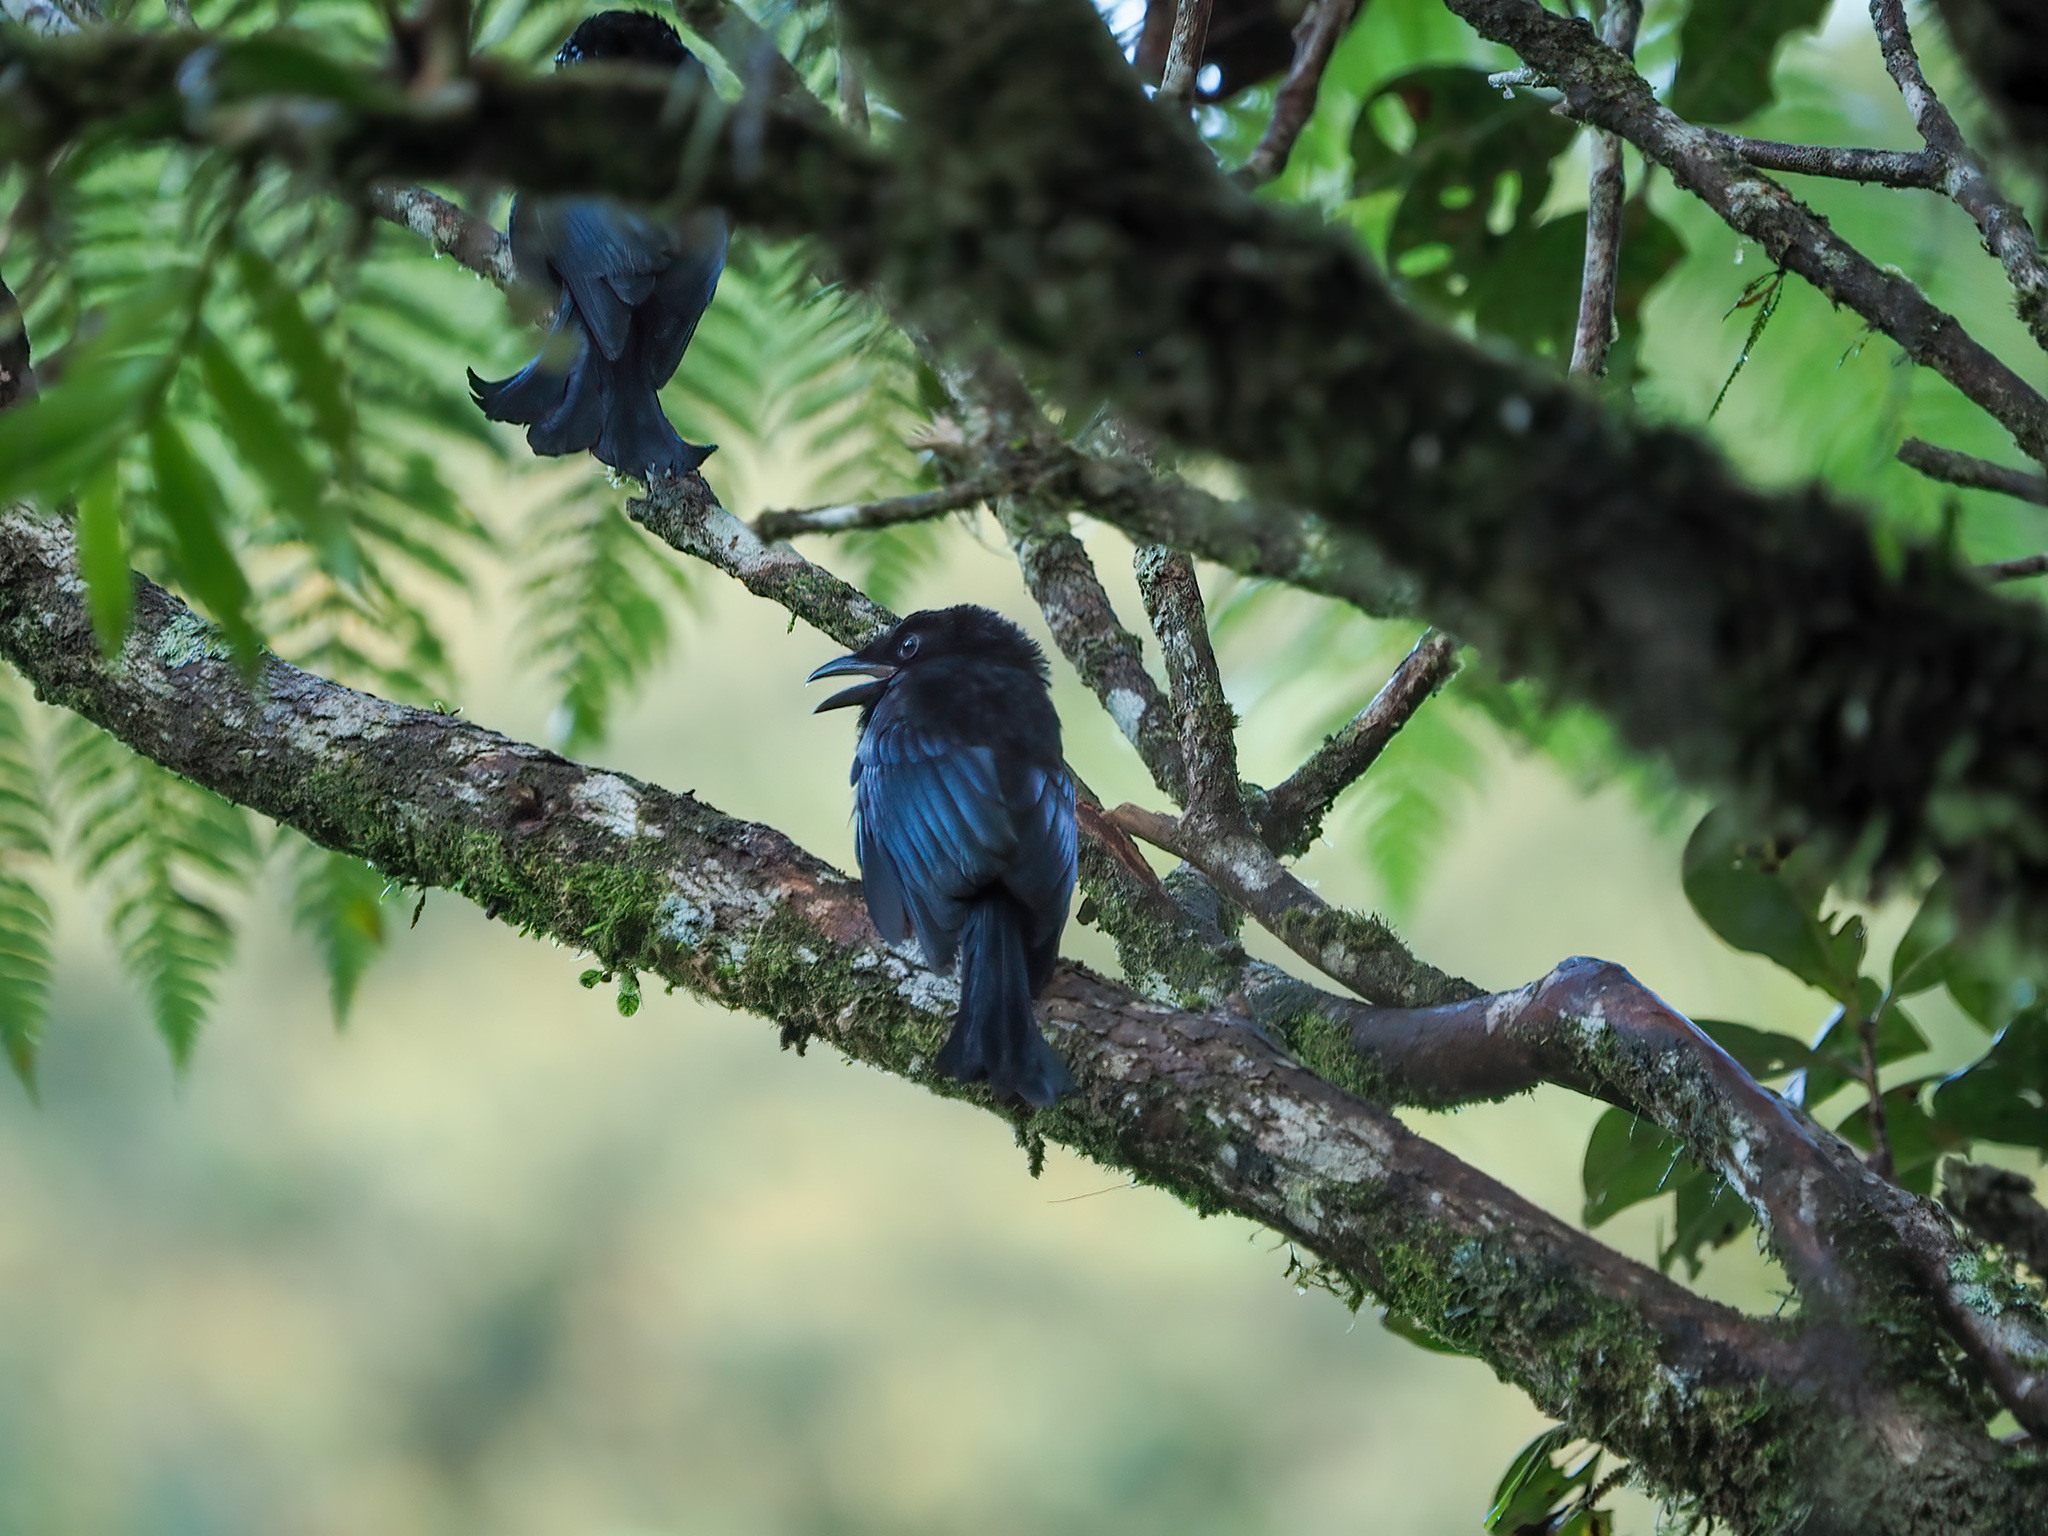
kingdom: Animalia
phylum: Chordata
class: Aves
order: Passeriformes
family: Dicruridae
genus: Dicrurus
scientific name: Dicrurus hottentottus
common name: Hair-crested drongo
